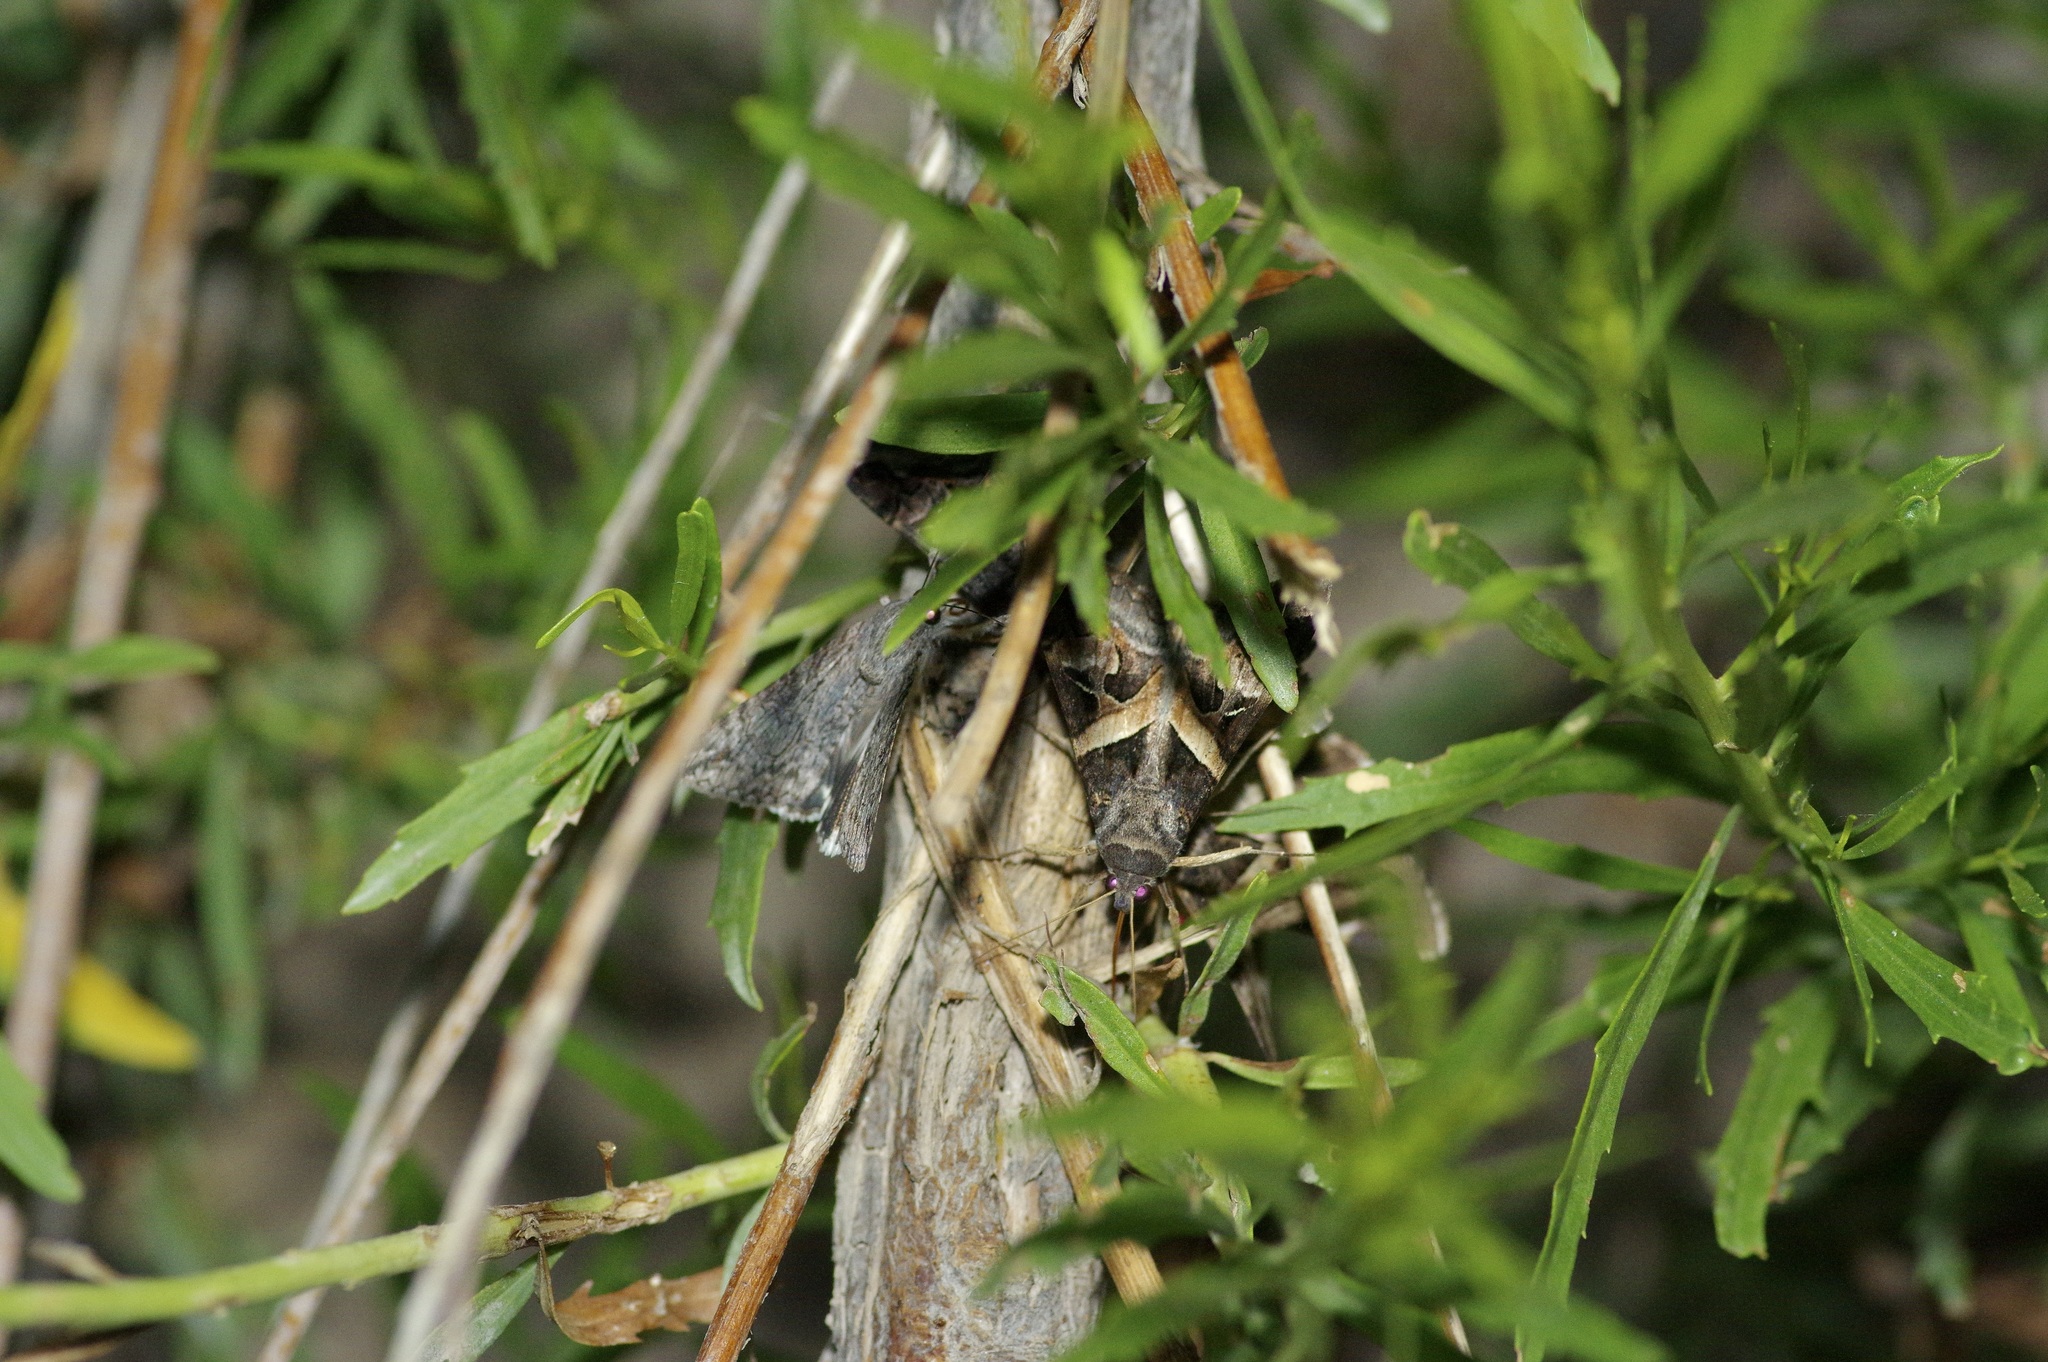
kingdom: Animalia
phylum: Arthropoda
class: Insecta
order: Lepidoptera
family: Erebidae
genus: Melipotis
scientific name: Melipotis indomita
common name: Moth
